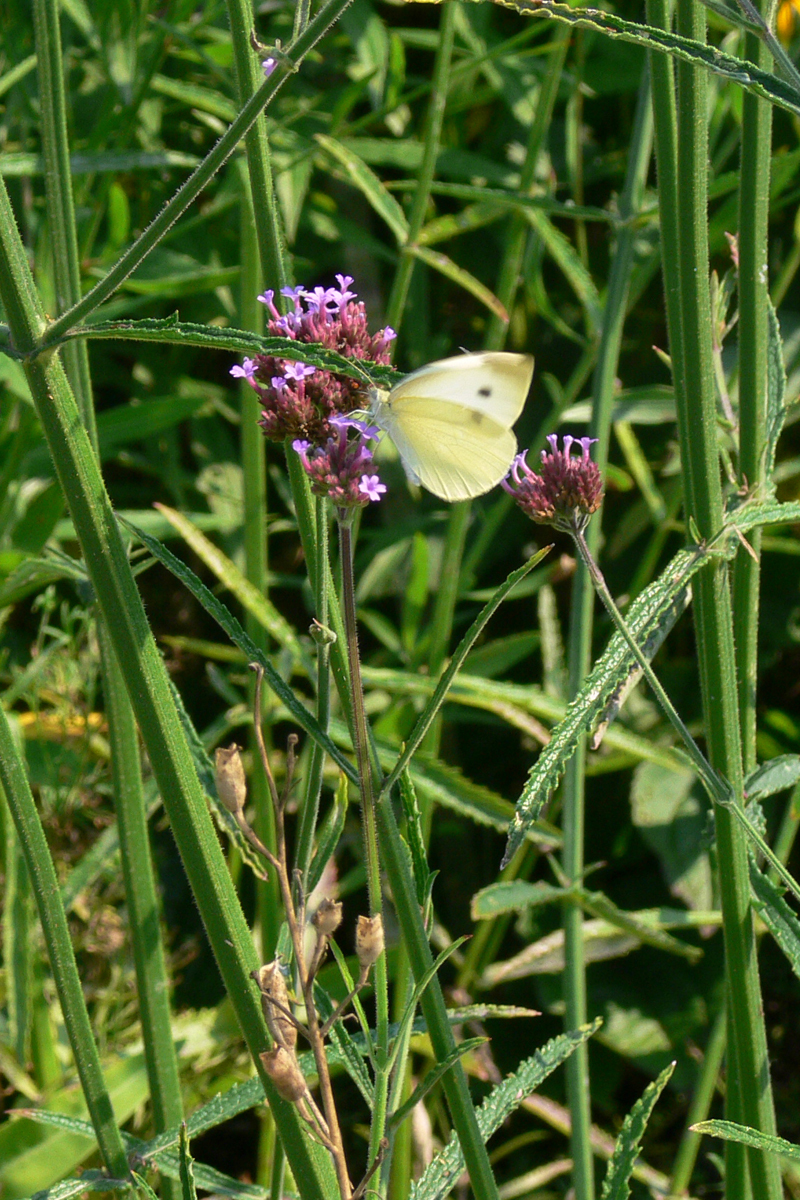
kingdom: Animalia
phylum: Arthropoda
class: Insecta
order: Lepidoptera
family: Pieridae
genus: Pieris
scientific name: Pieris rapae
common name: Small white
